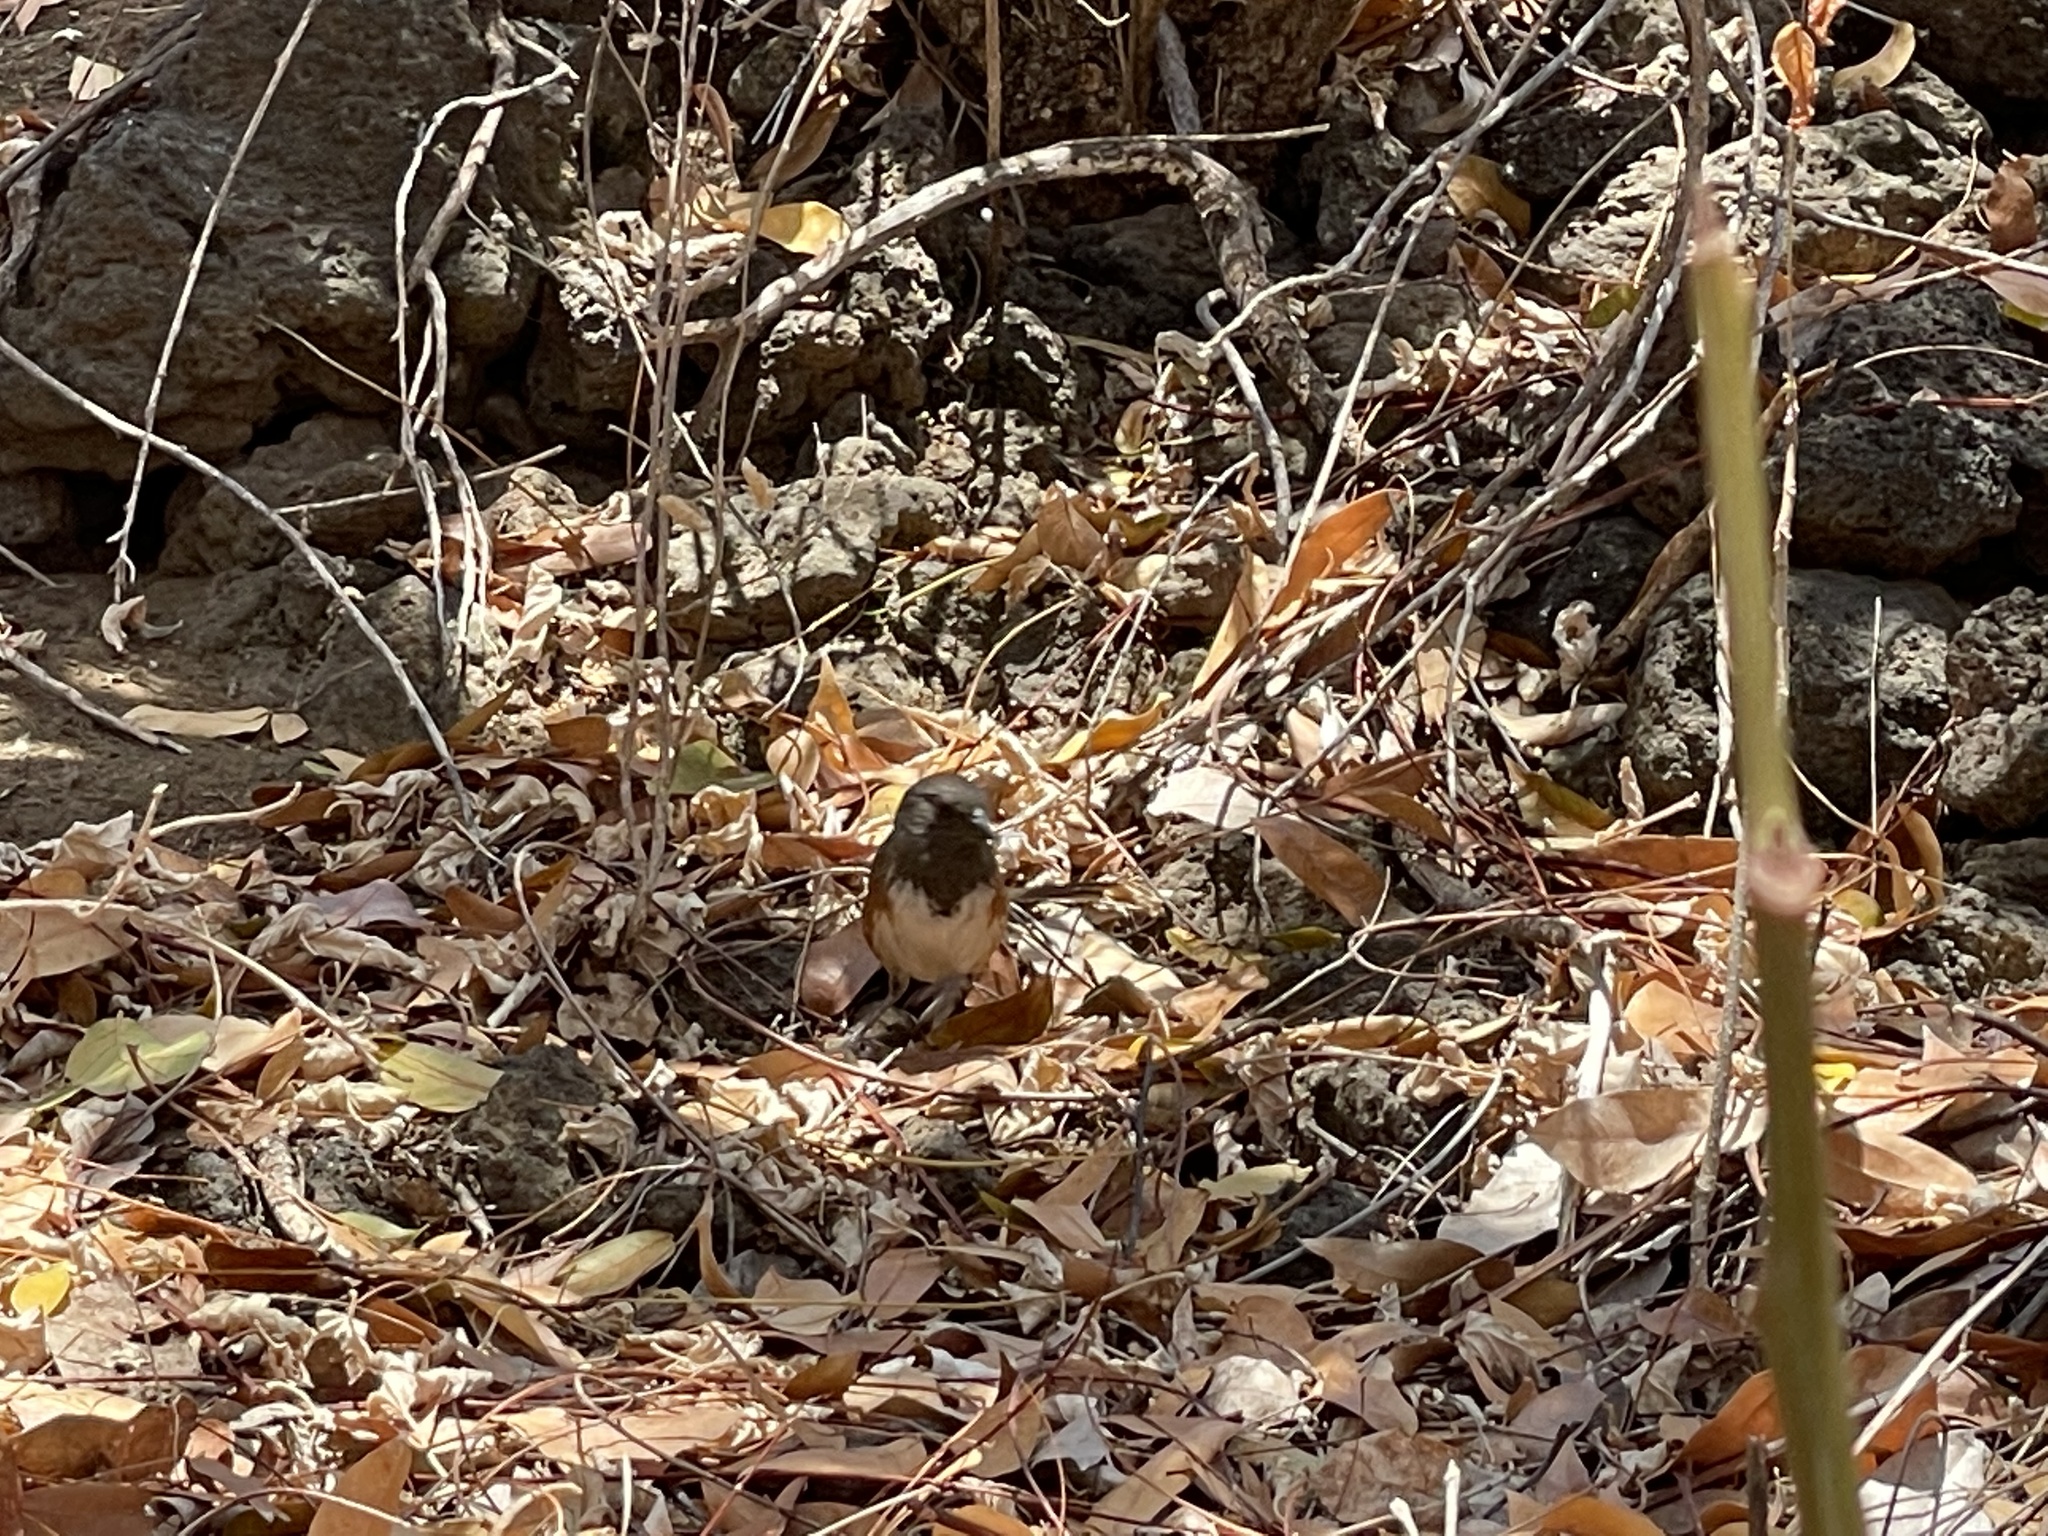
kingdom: Animalia
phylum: Chordata
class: Aves
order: Passeriformes
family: Passerellidae
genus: Pipilo
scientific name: Pipilo maculatus
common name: Spotted towhee
